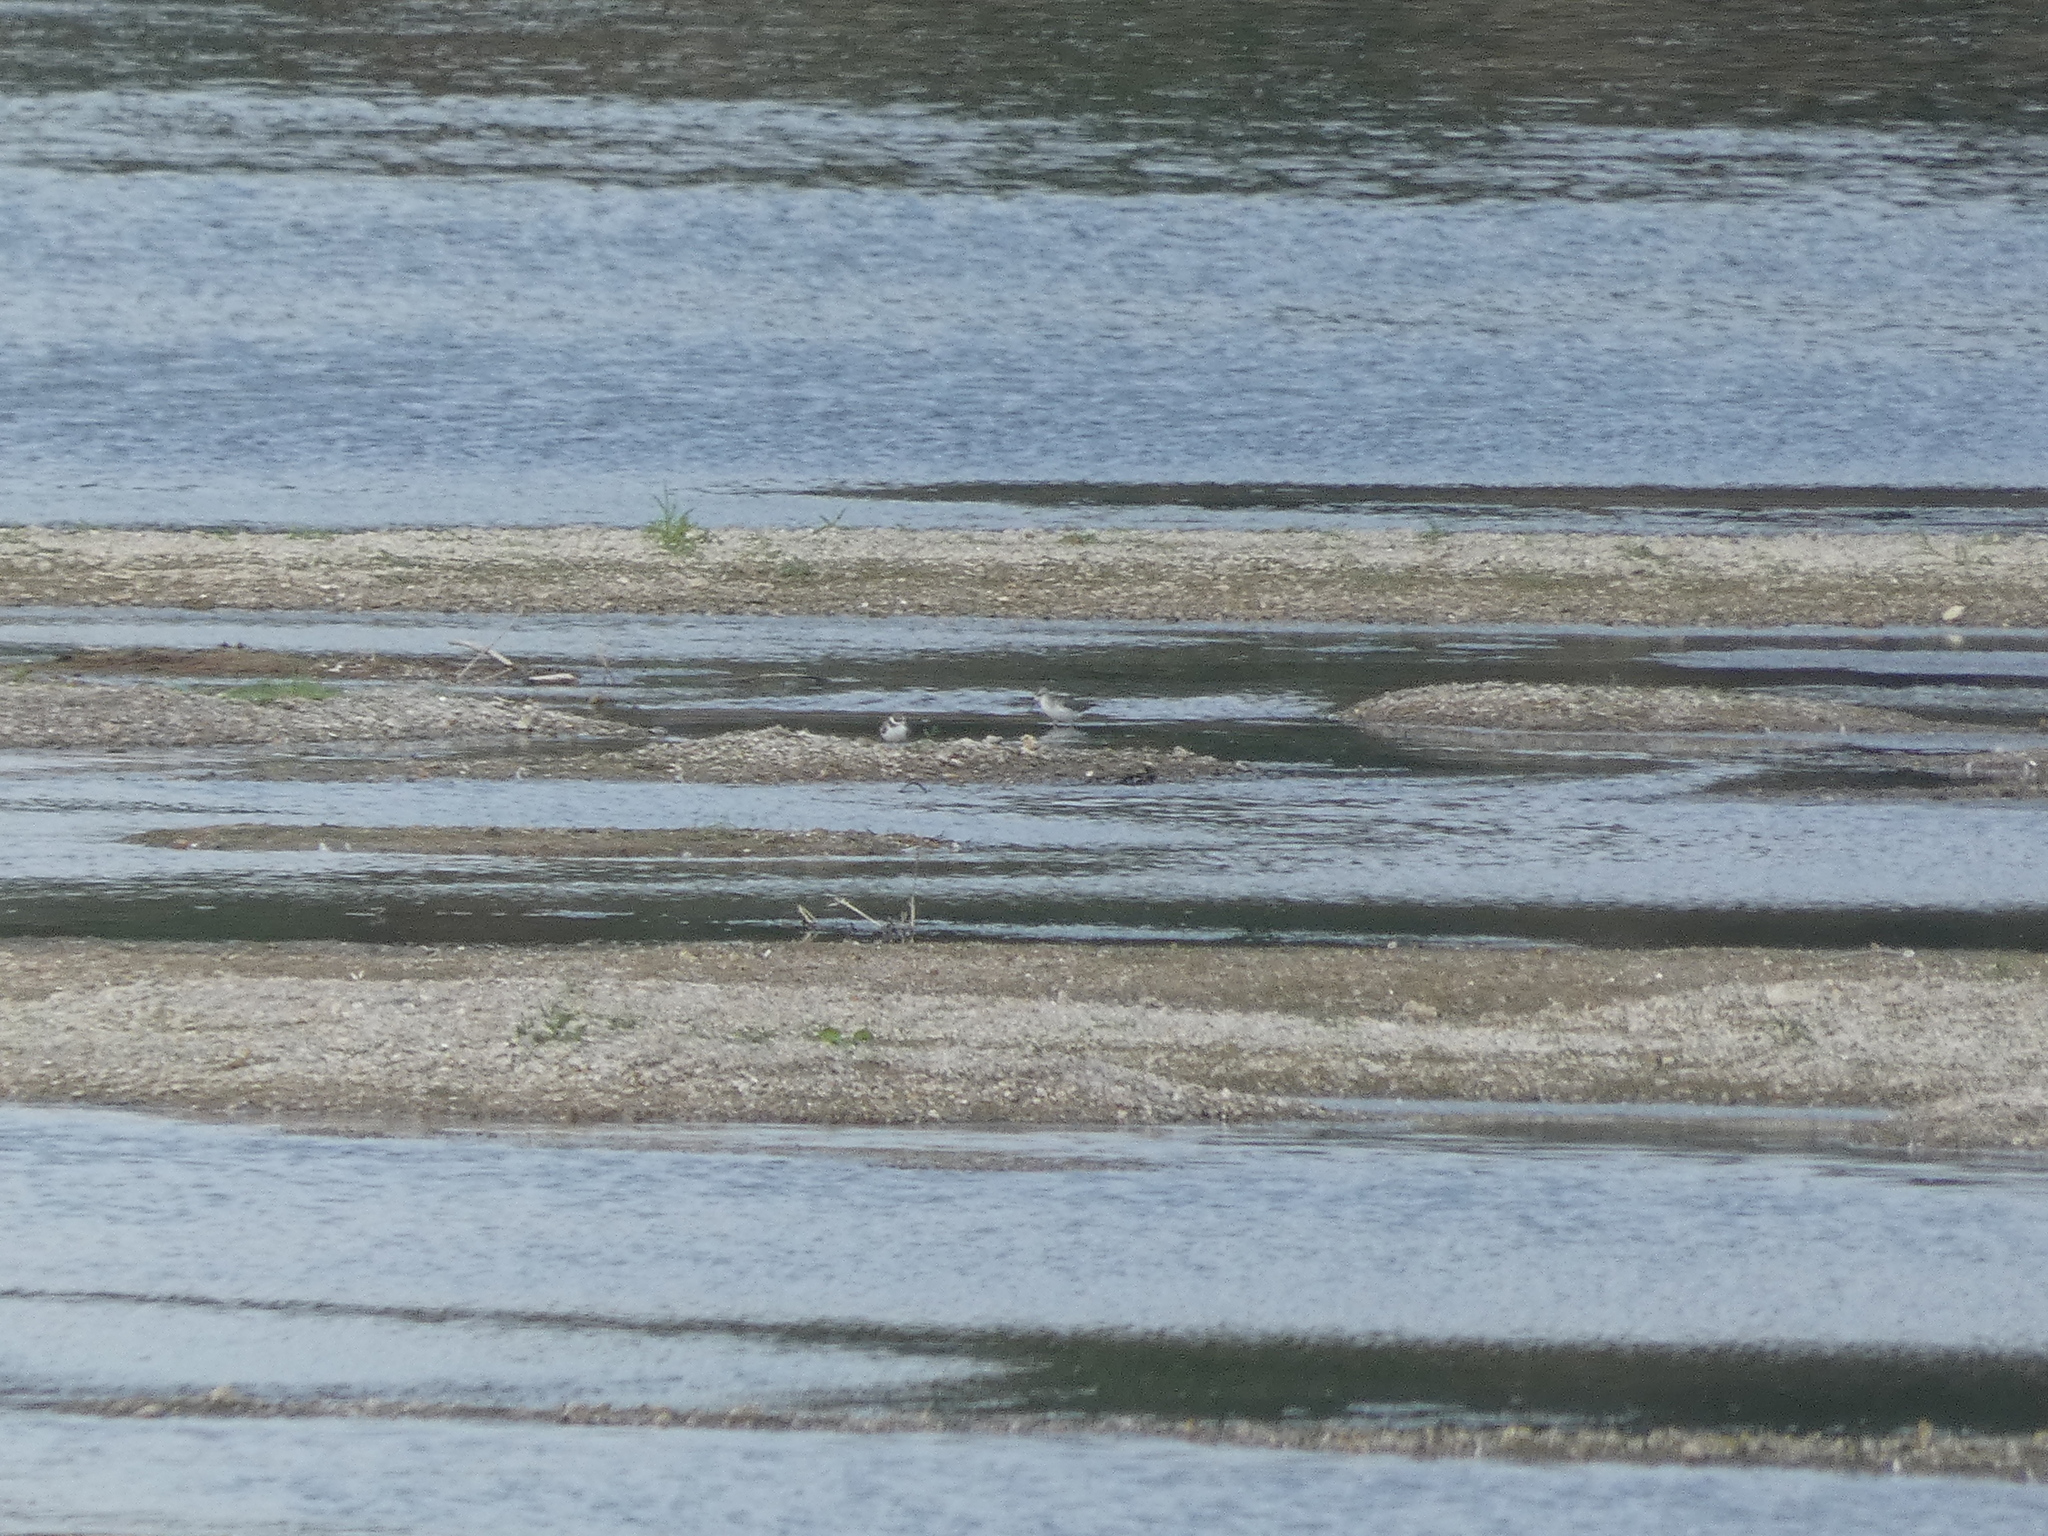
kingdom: Animalia
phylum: Chordata
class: Aves
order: Charadriiformes
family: Scolopacidae
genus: Tringa
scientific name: Tringa stagnatilis
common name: Marsh sandpiper
